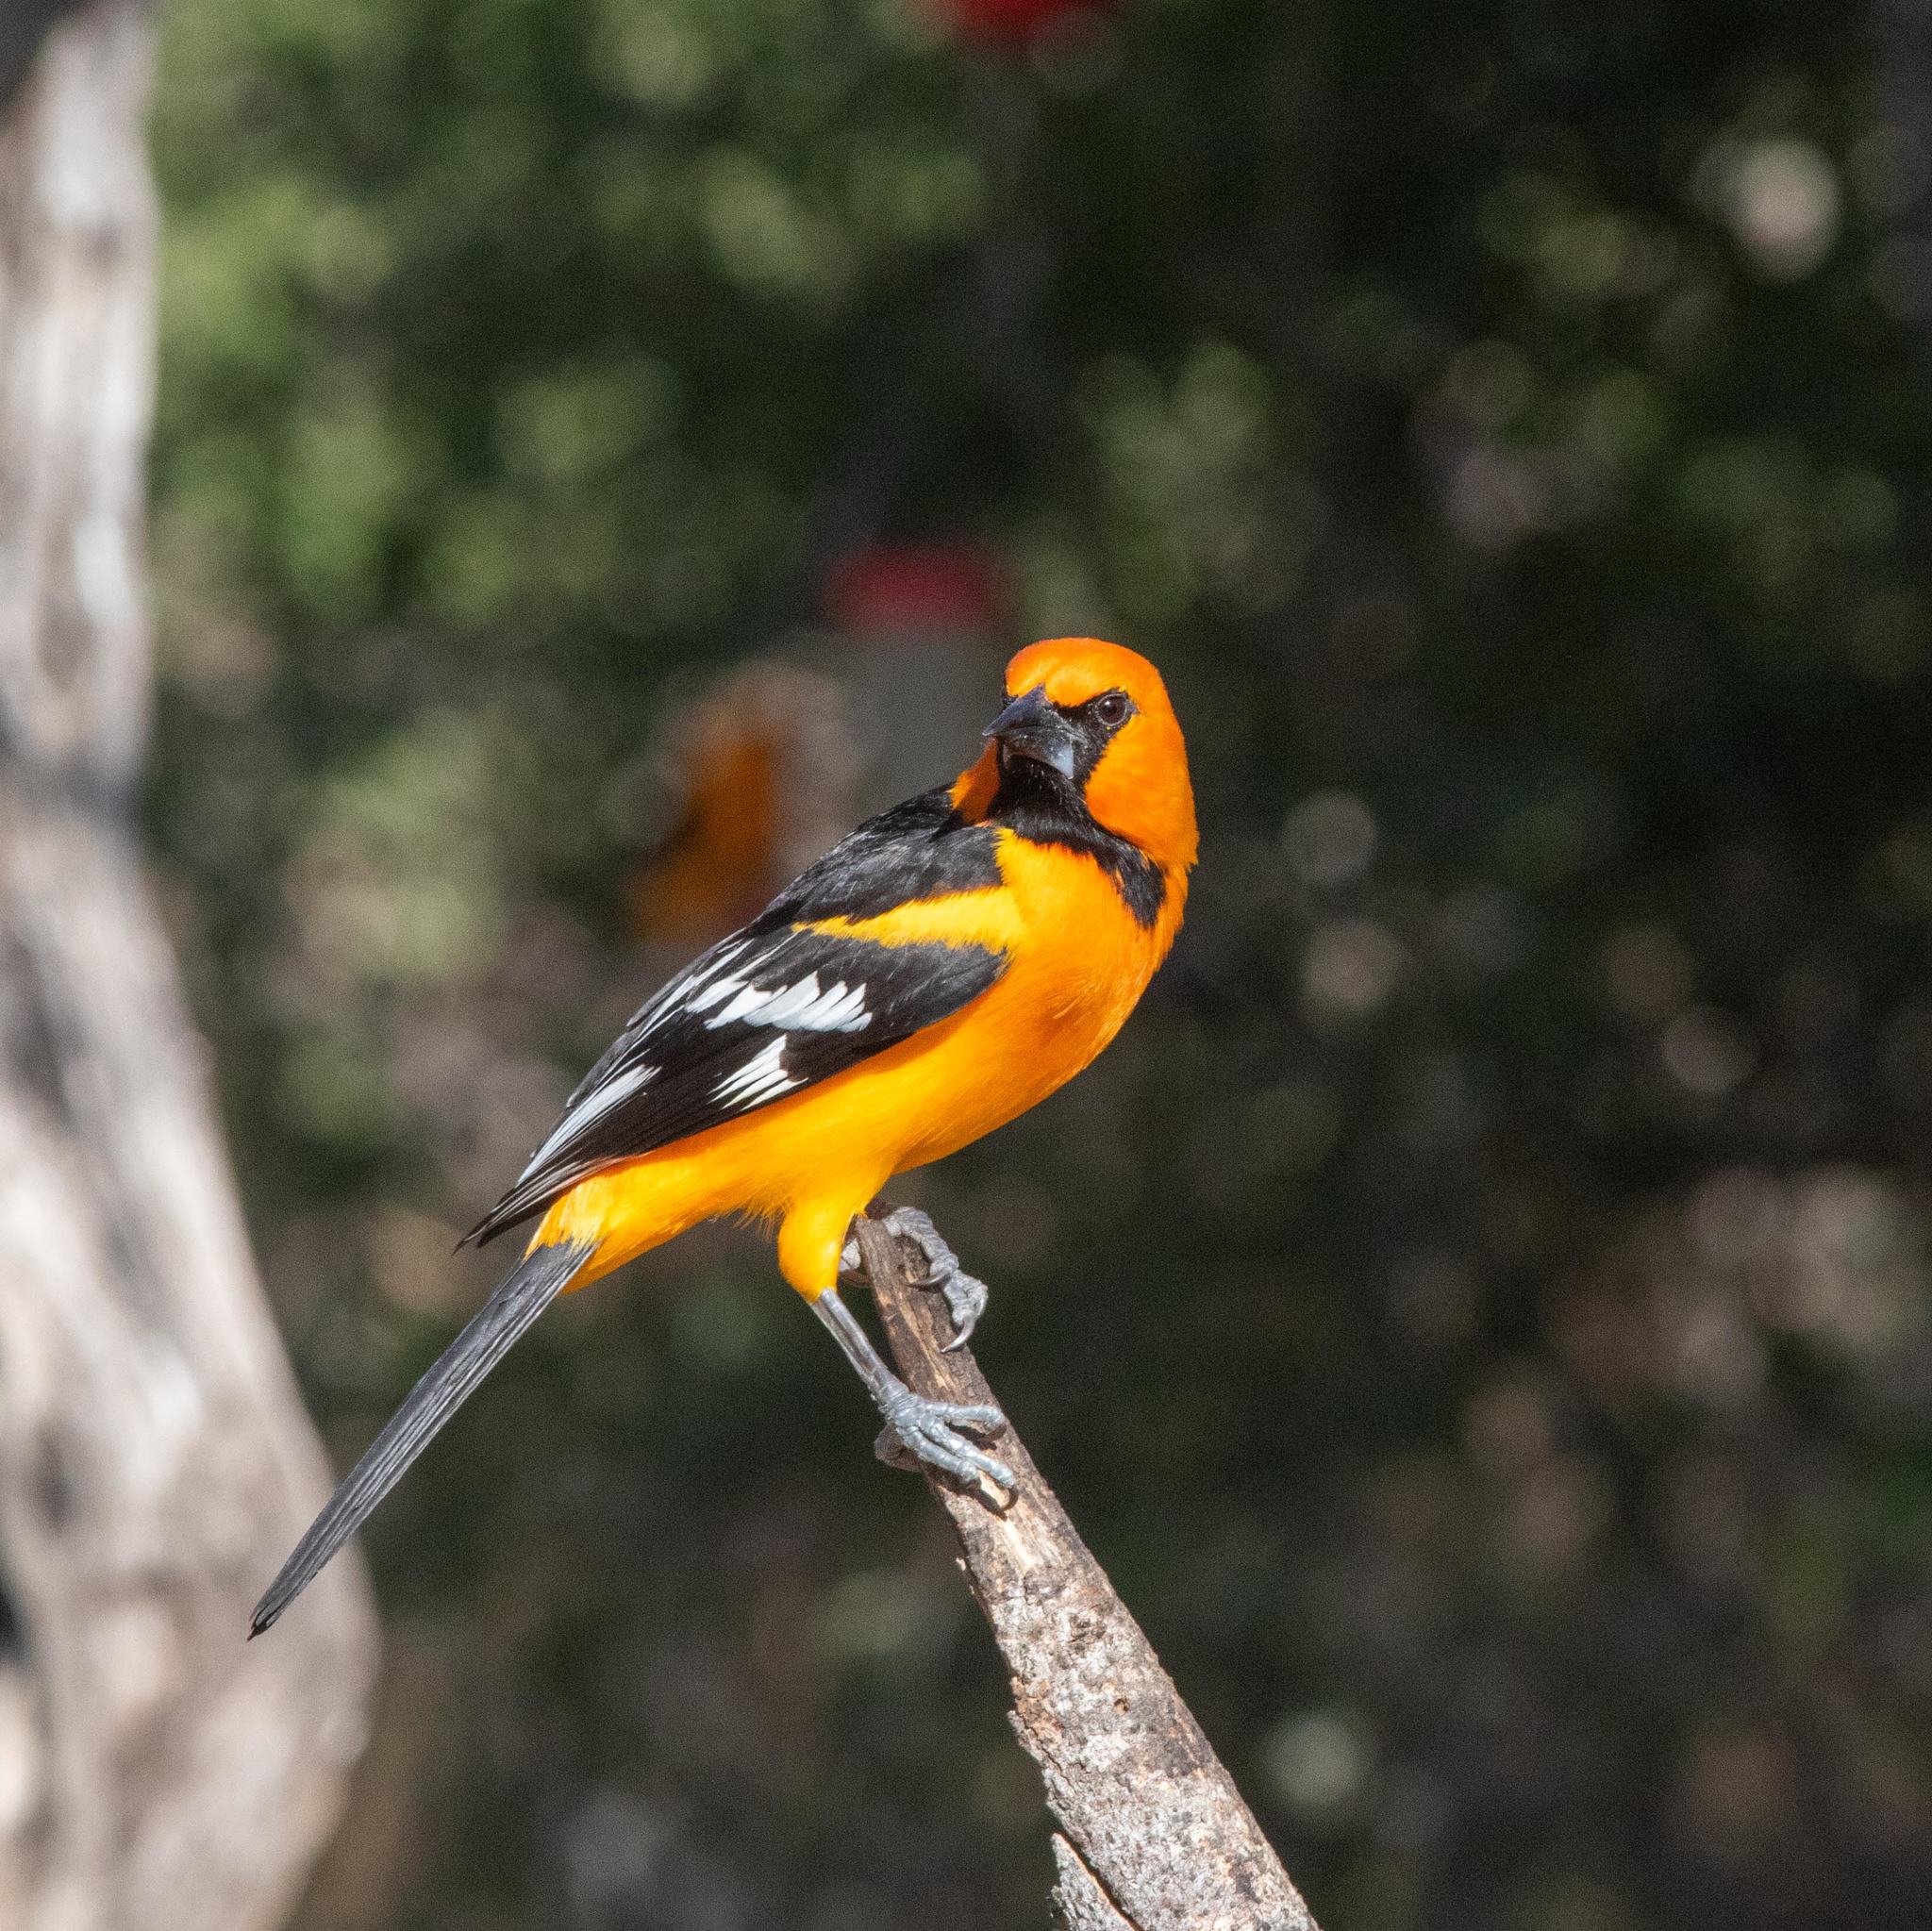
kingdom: Animalia
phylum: Chordata
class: Aves
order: Passeriformes
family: Icteridae
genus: Icterus
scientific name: Icterus gularis
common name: Altamira oriole
